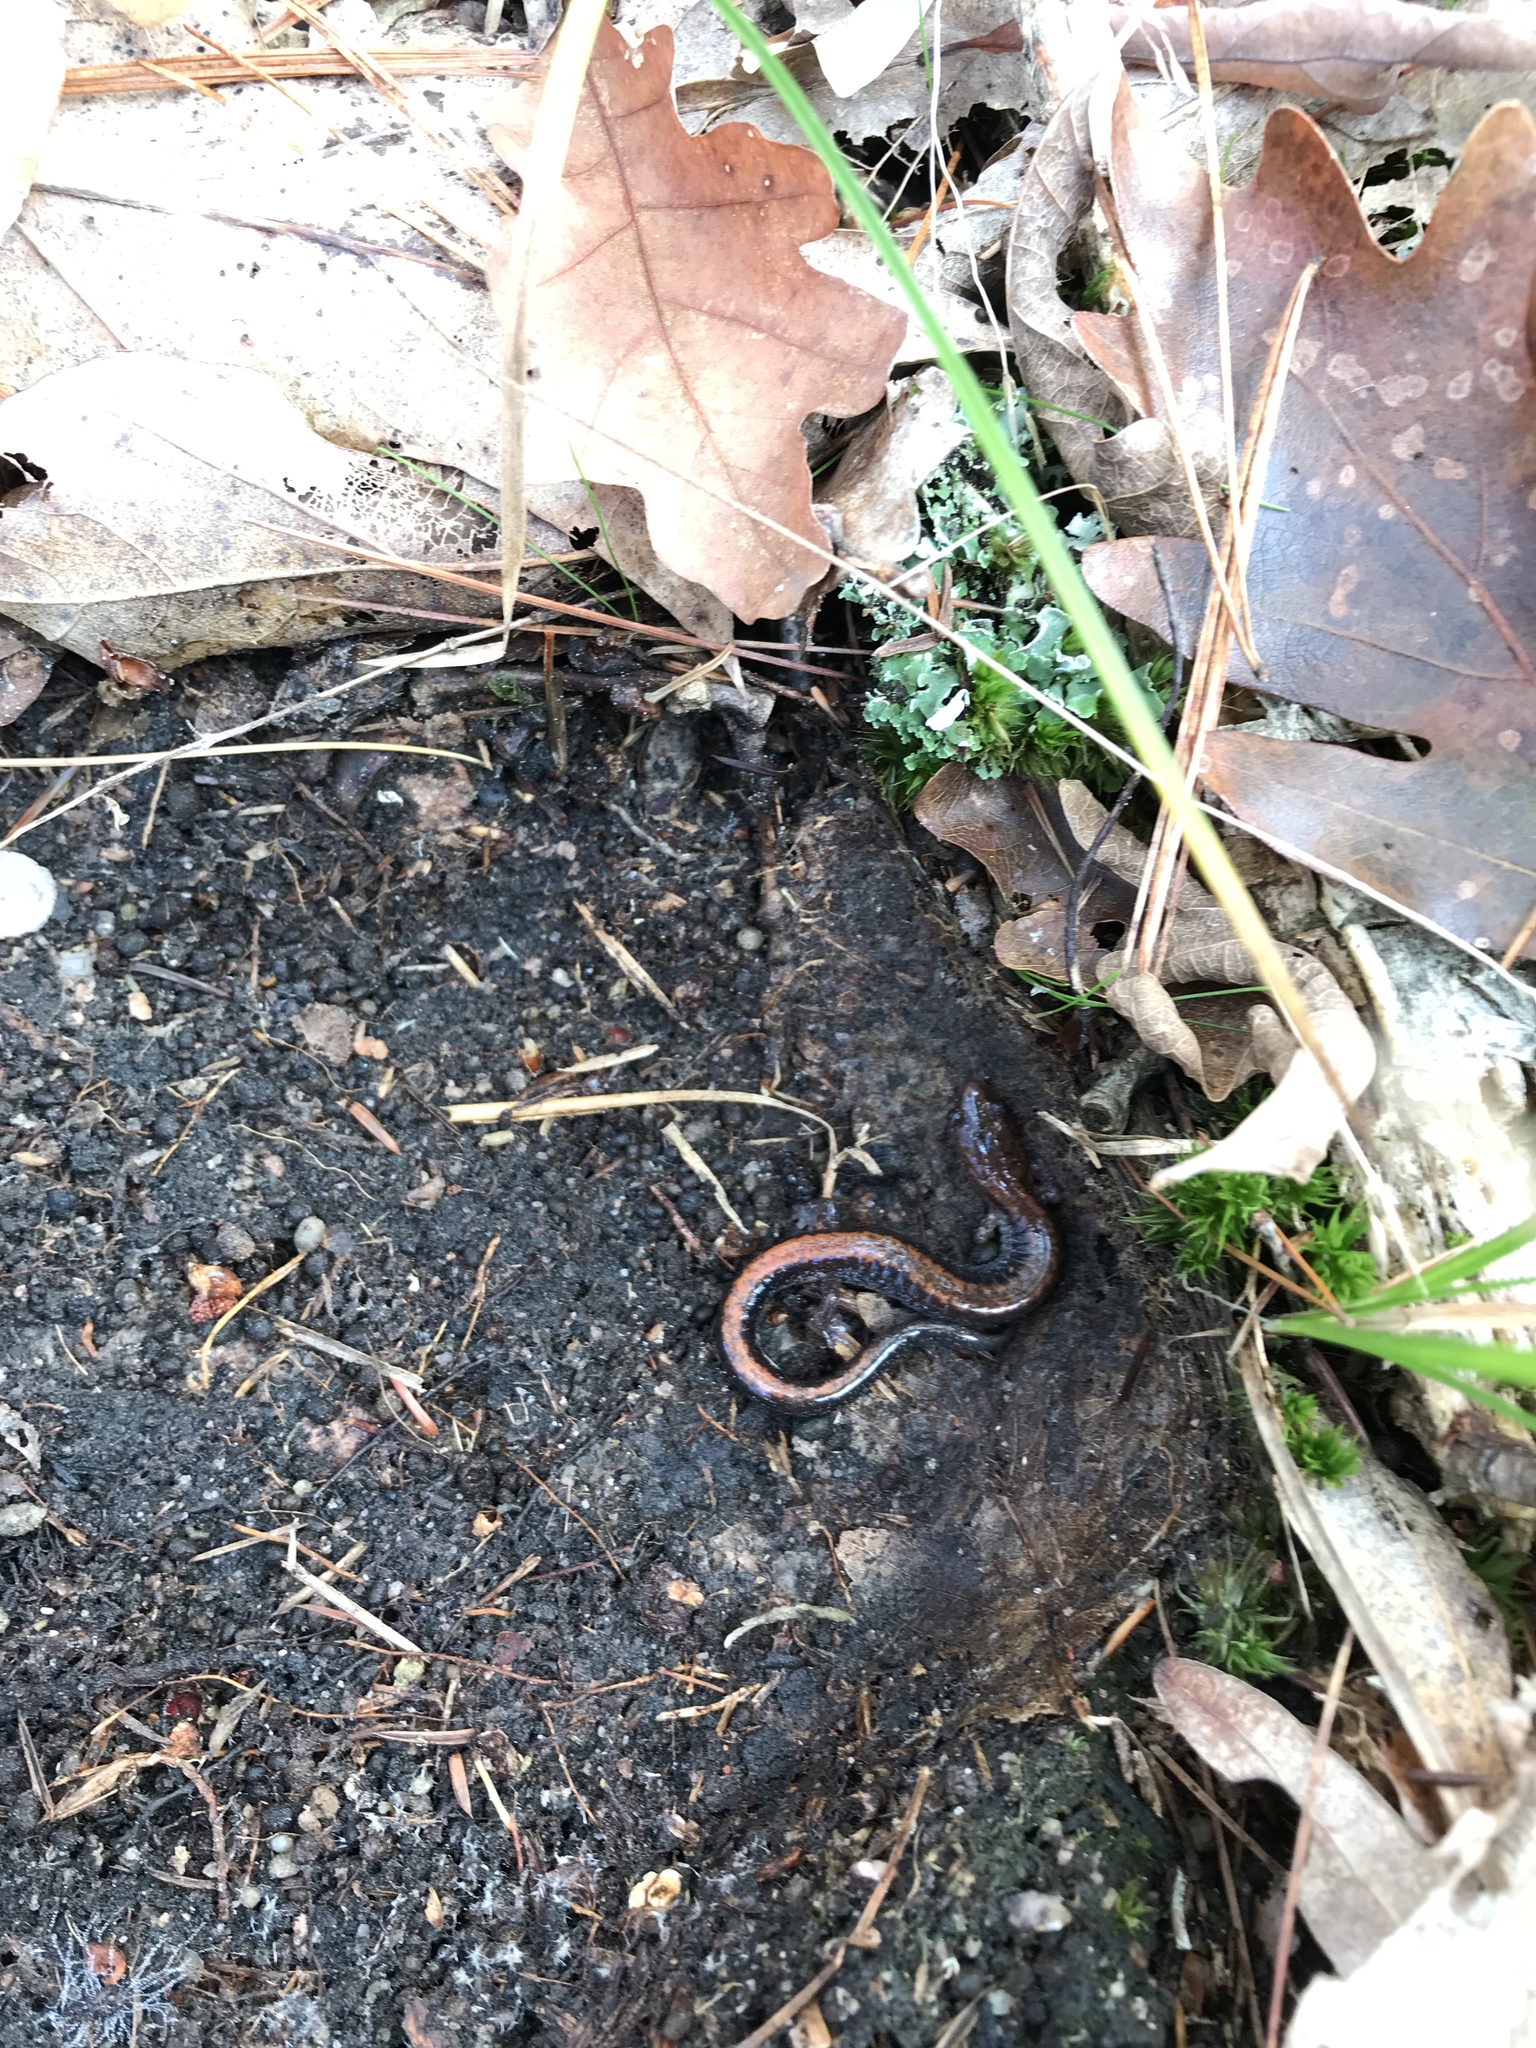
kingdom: Animalia
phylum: Chordata
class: Amphibia
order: Caudata
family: Plethodontidae
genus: Plethodon
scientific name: Plethodon cinereus
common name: Redback salamander
